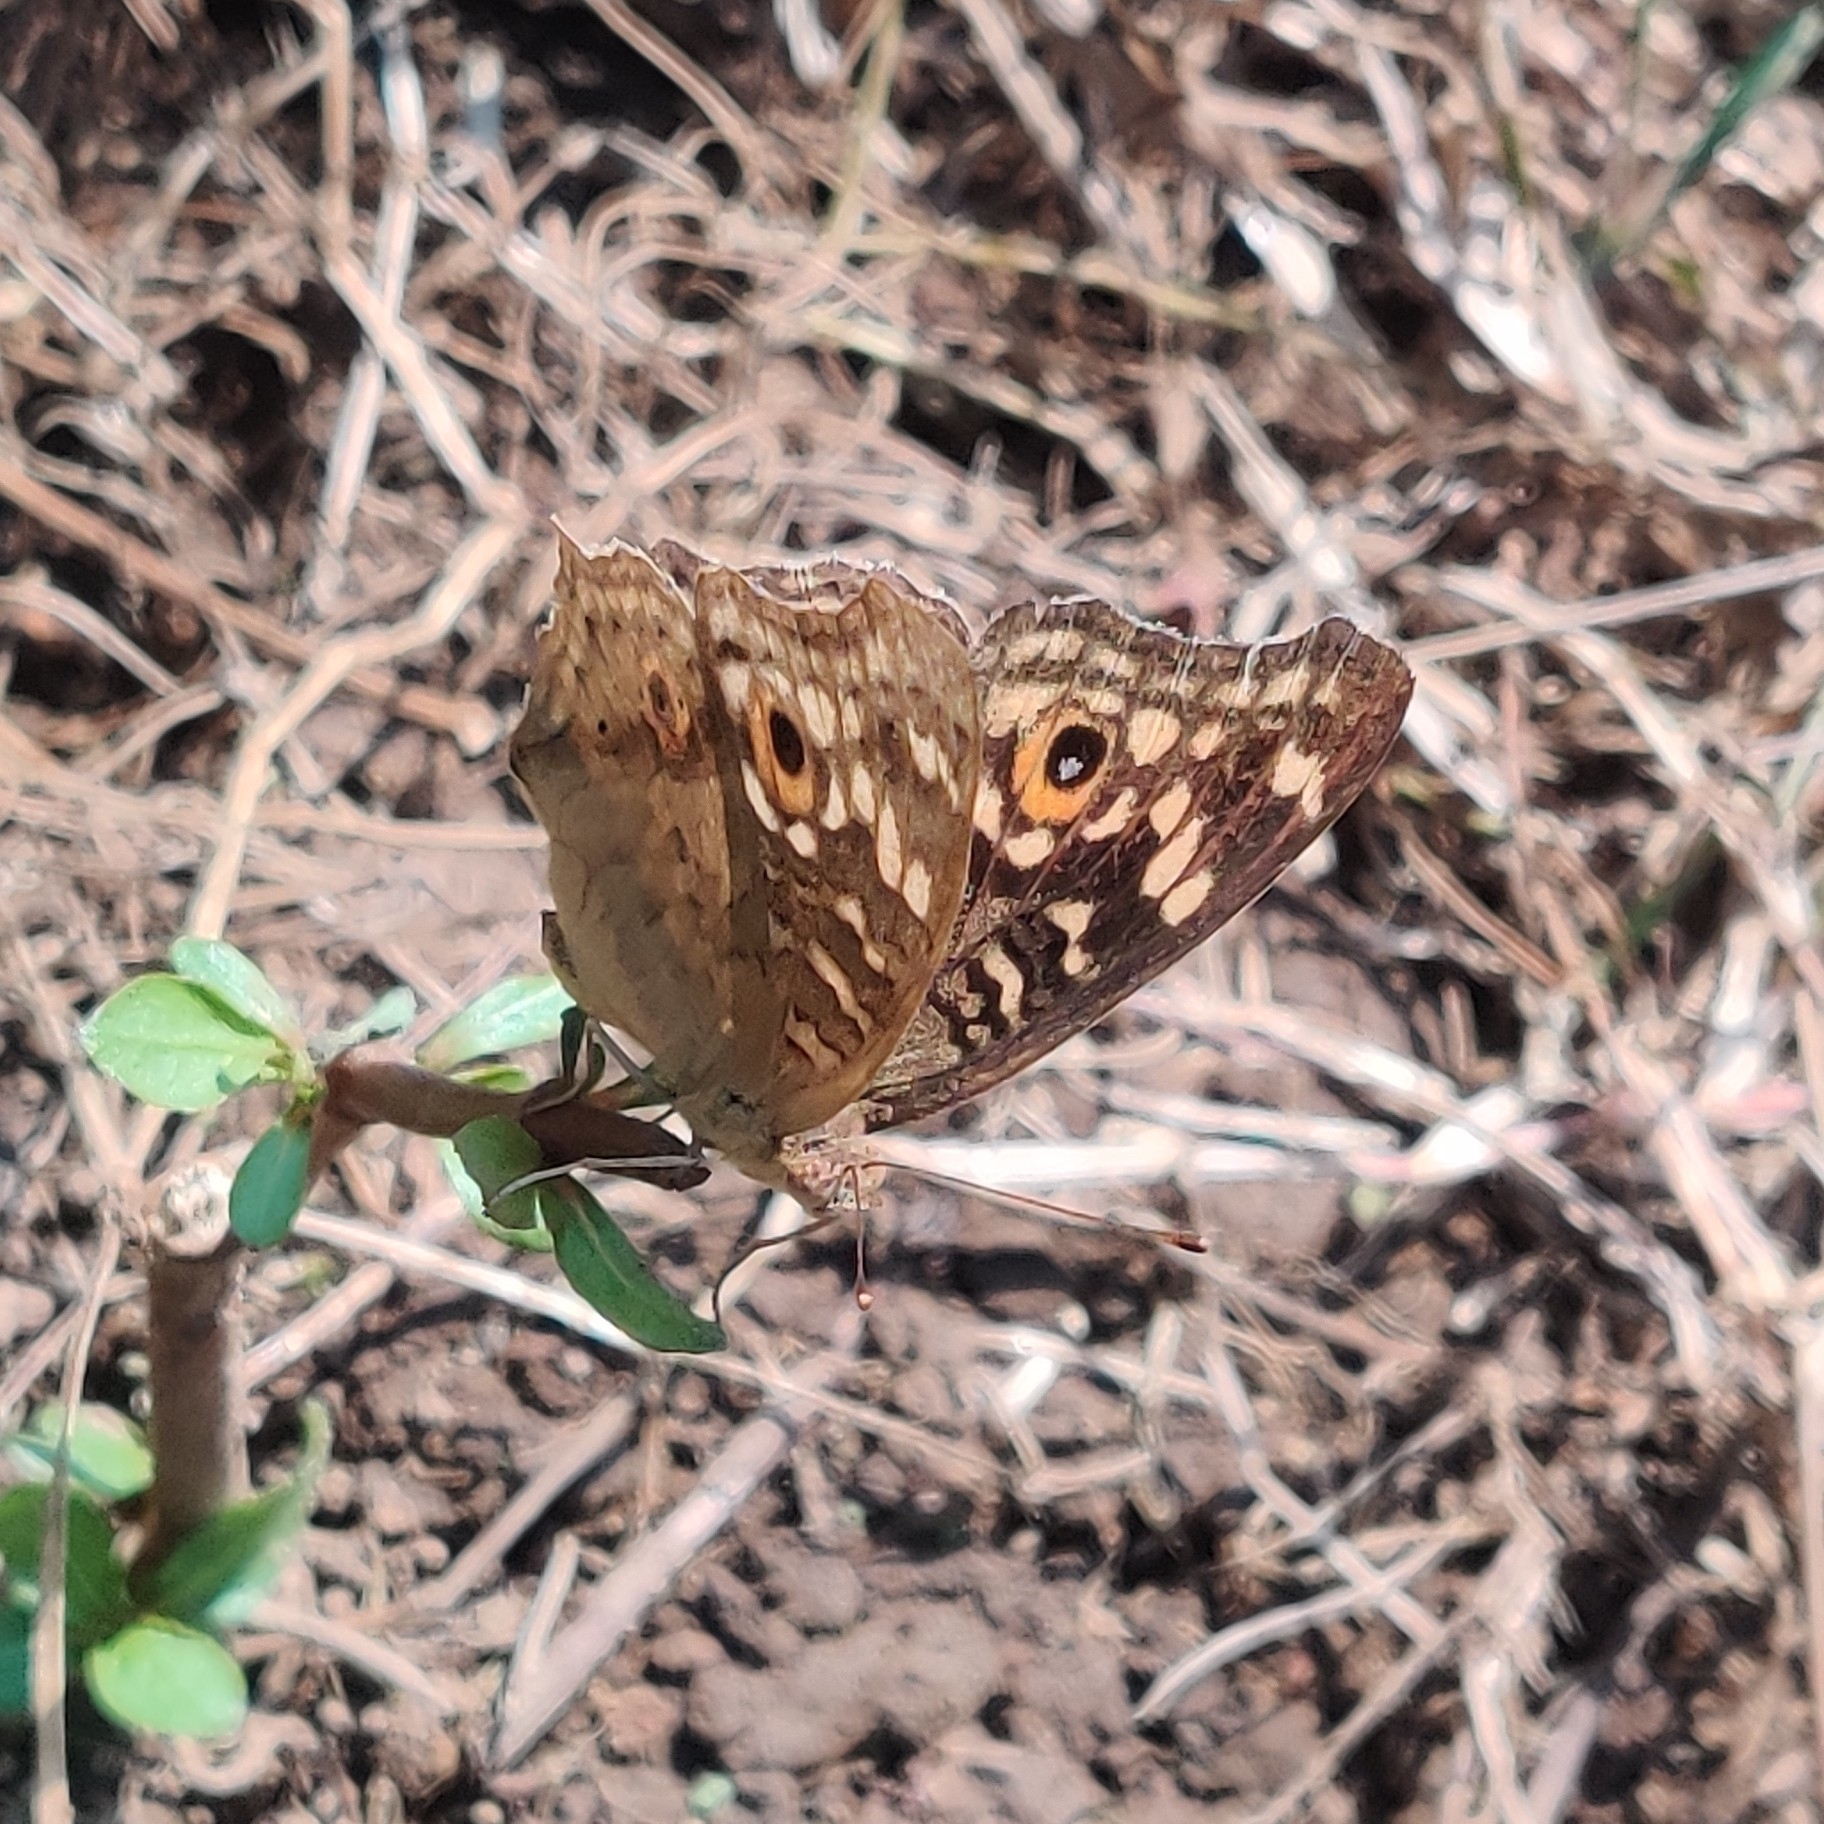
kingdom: Animalia
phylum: Arthropoda
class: Insecta
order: Lepidoptera
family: Nymphalidae
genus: Junonia
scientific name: Junonia lemonias
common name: Lemon pansy
